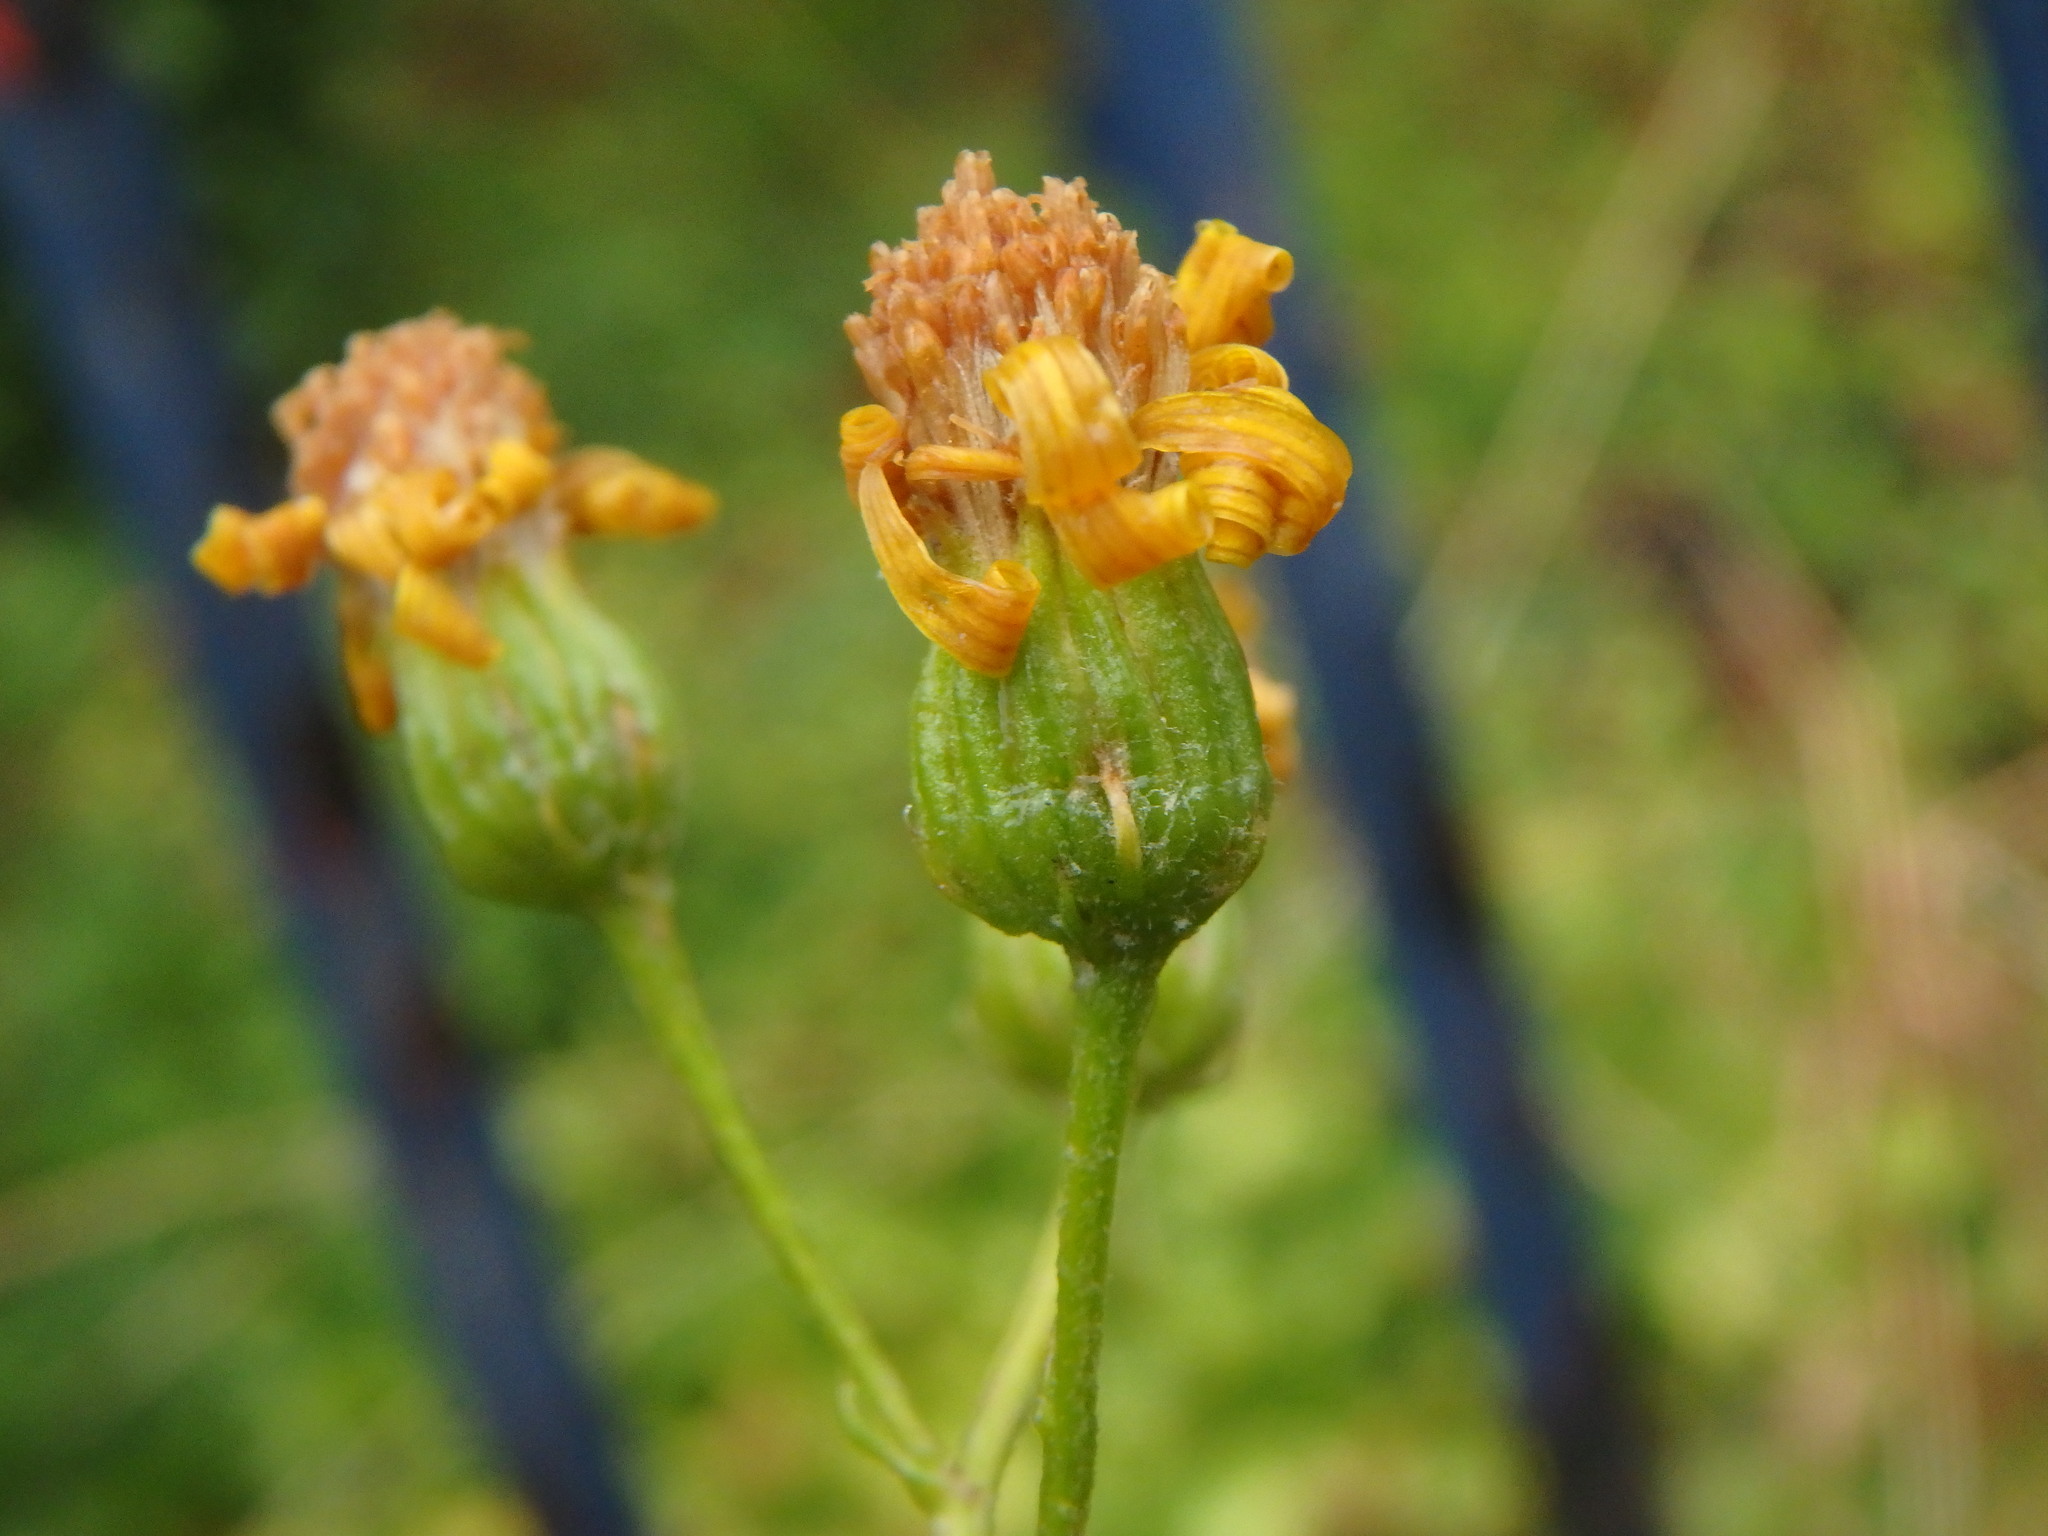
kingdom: Plantae
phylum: Tracheophyta
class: Magnoliopsida
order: Asterales
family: Asteraceae
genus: Jacobaea
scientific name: Jacobaea erucifolia
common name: Hoary ragwort
